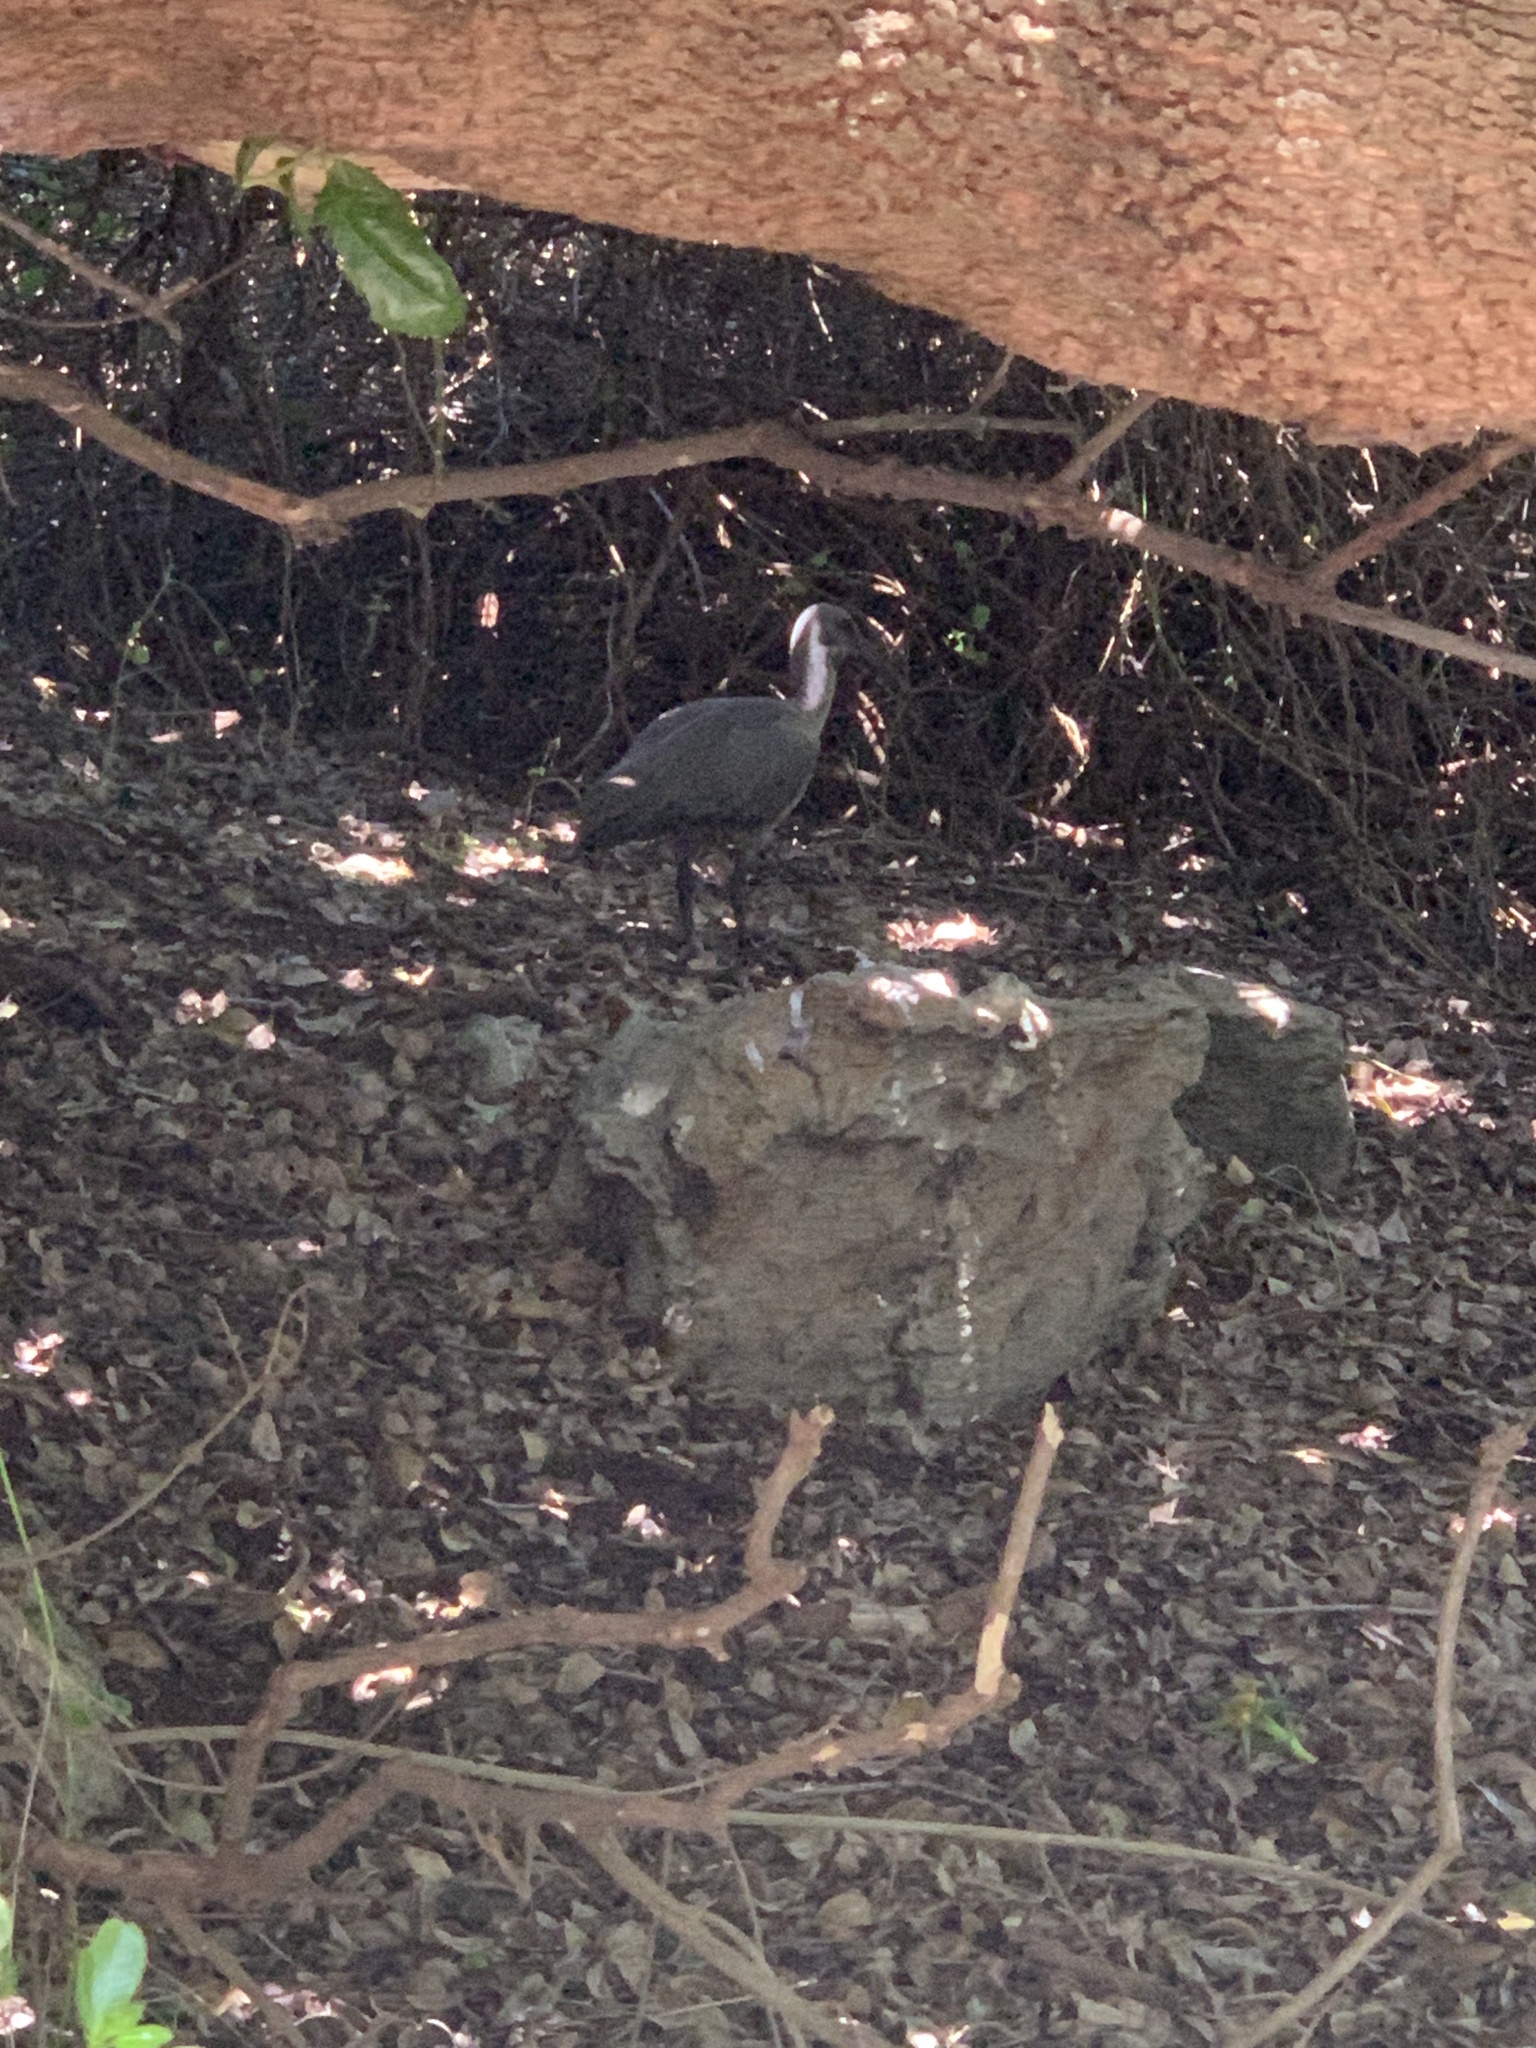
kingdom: Animalia
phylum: Chordata
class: Aves
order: Pelecaniformes
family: Threskiornithidae
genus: Bostrychia
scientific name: Bostrychia hagedash
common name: Hadada ibis
